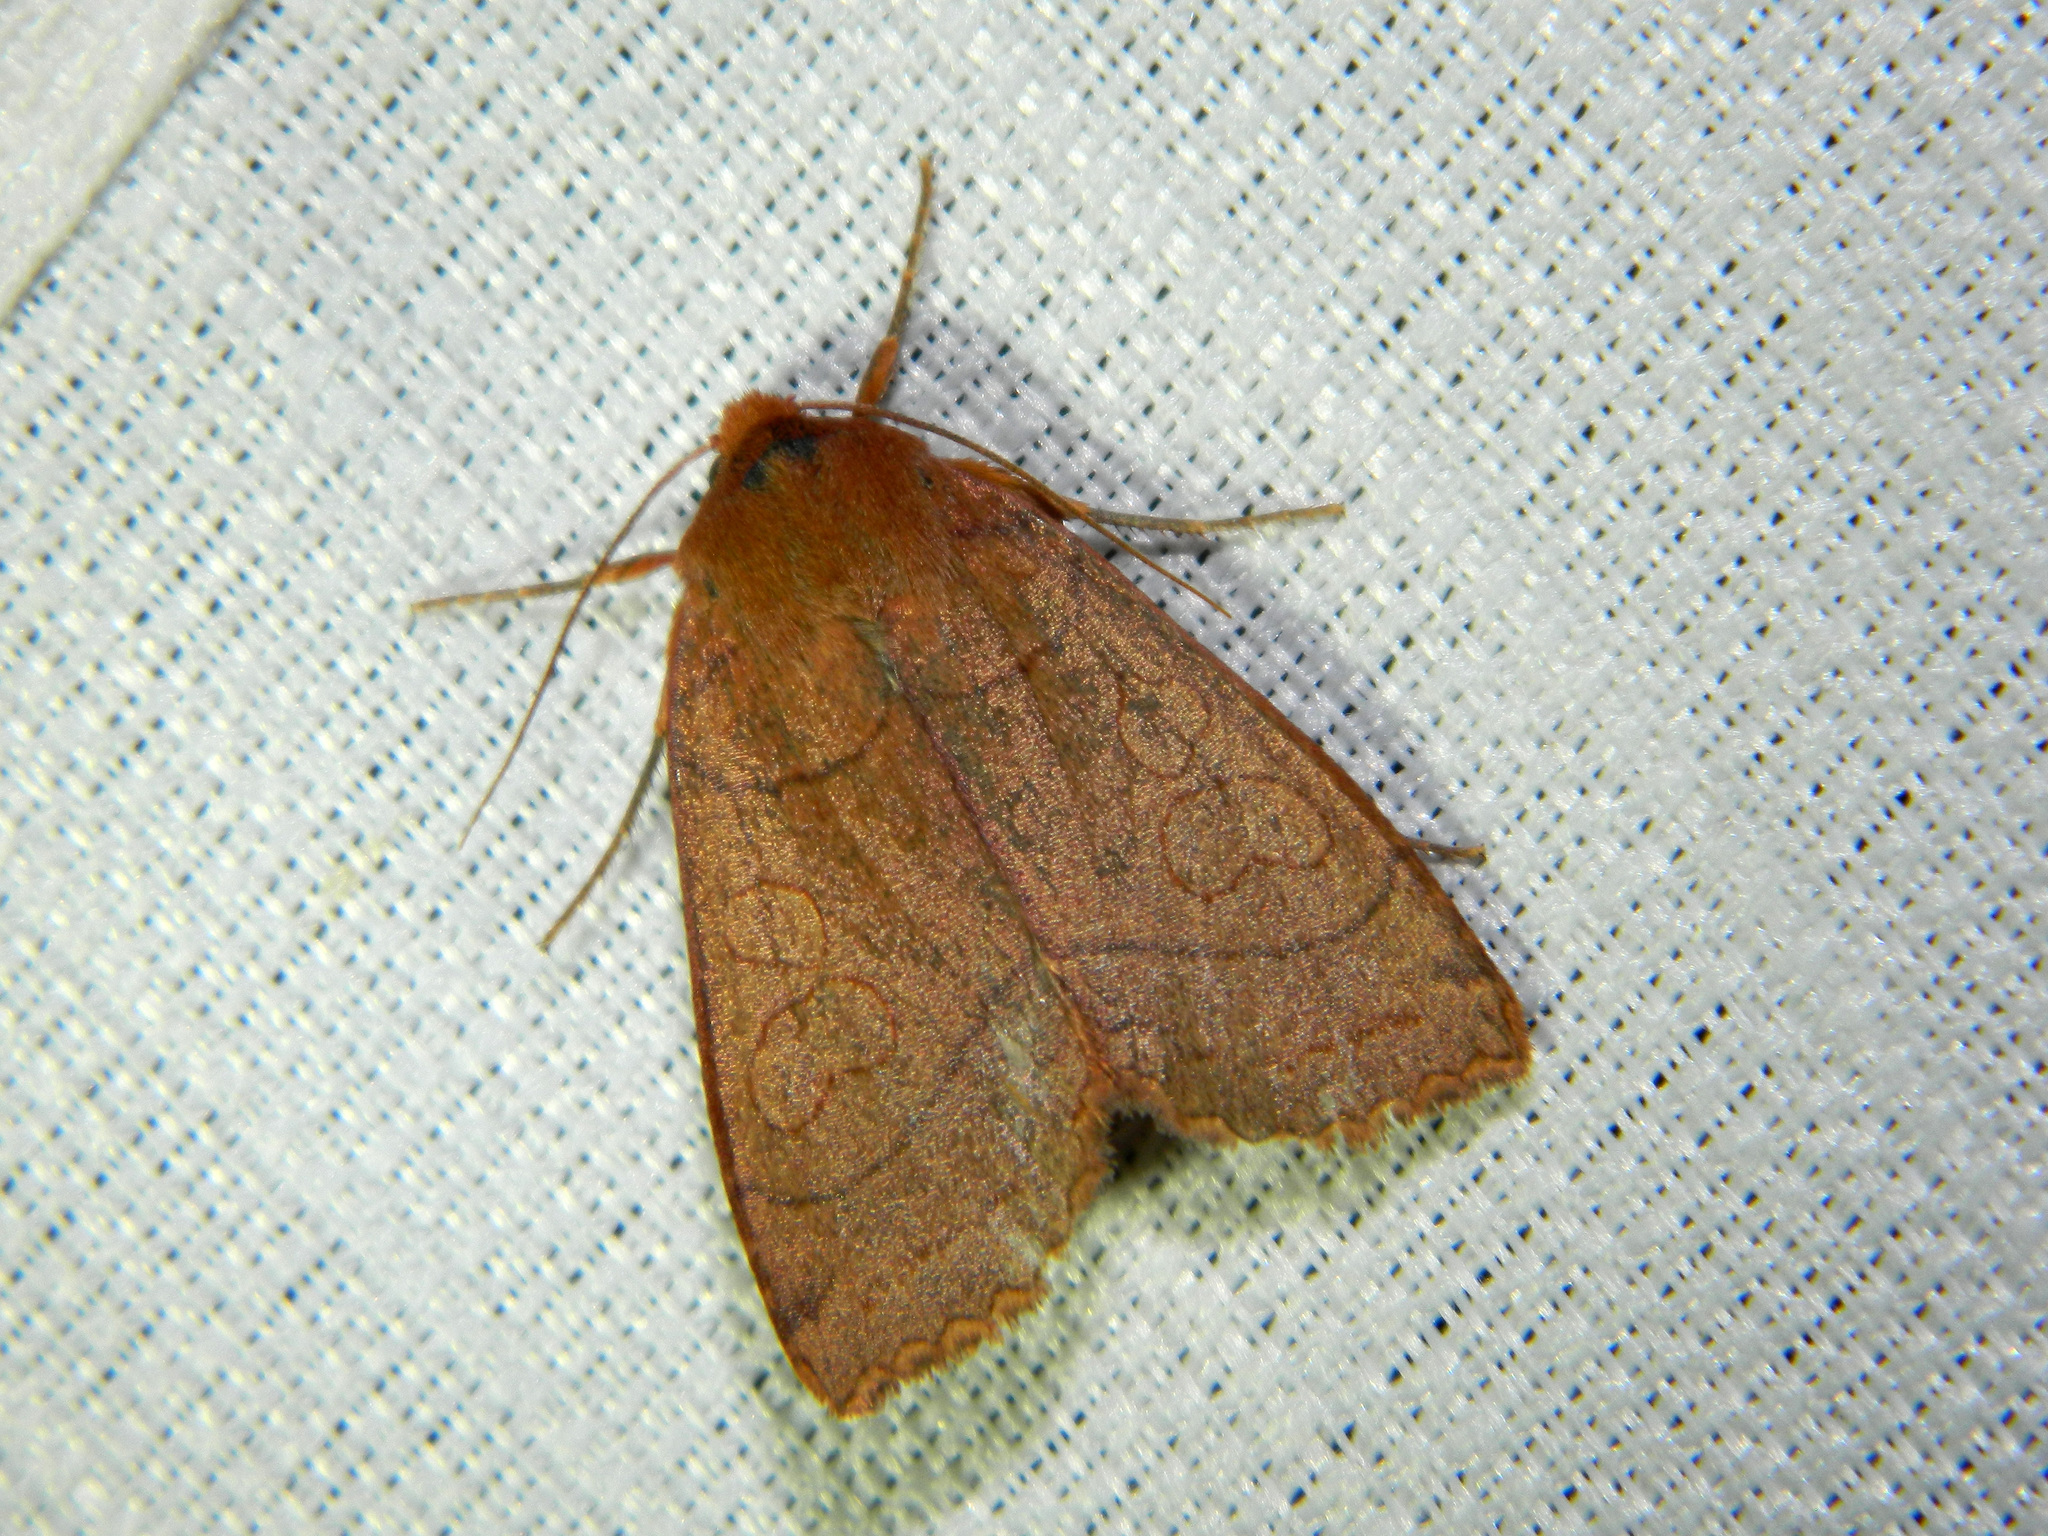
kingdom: Animalia
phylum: Arthropoda
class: Insecta
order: Lepidoptera
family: Noctuidae
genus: Metaxaglaea
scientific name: Metaxaglaea inulta
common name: Unsated sallow
